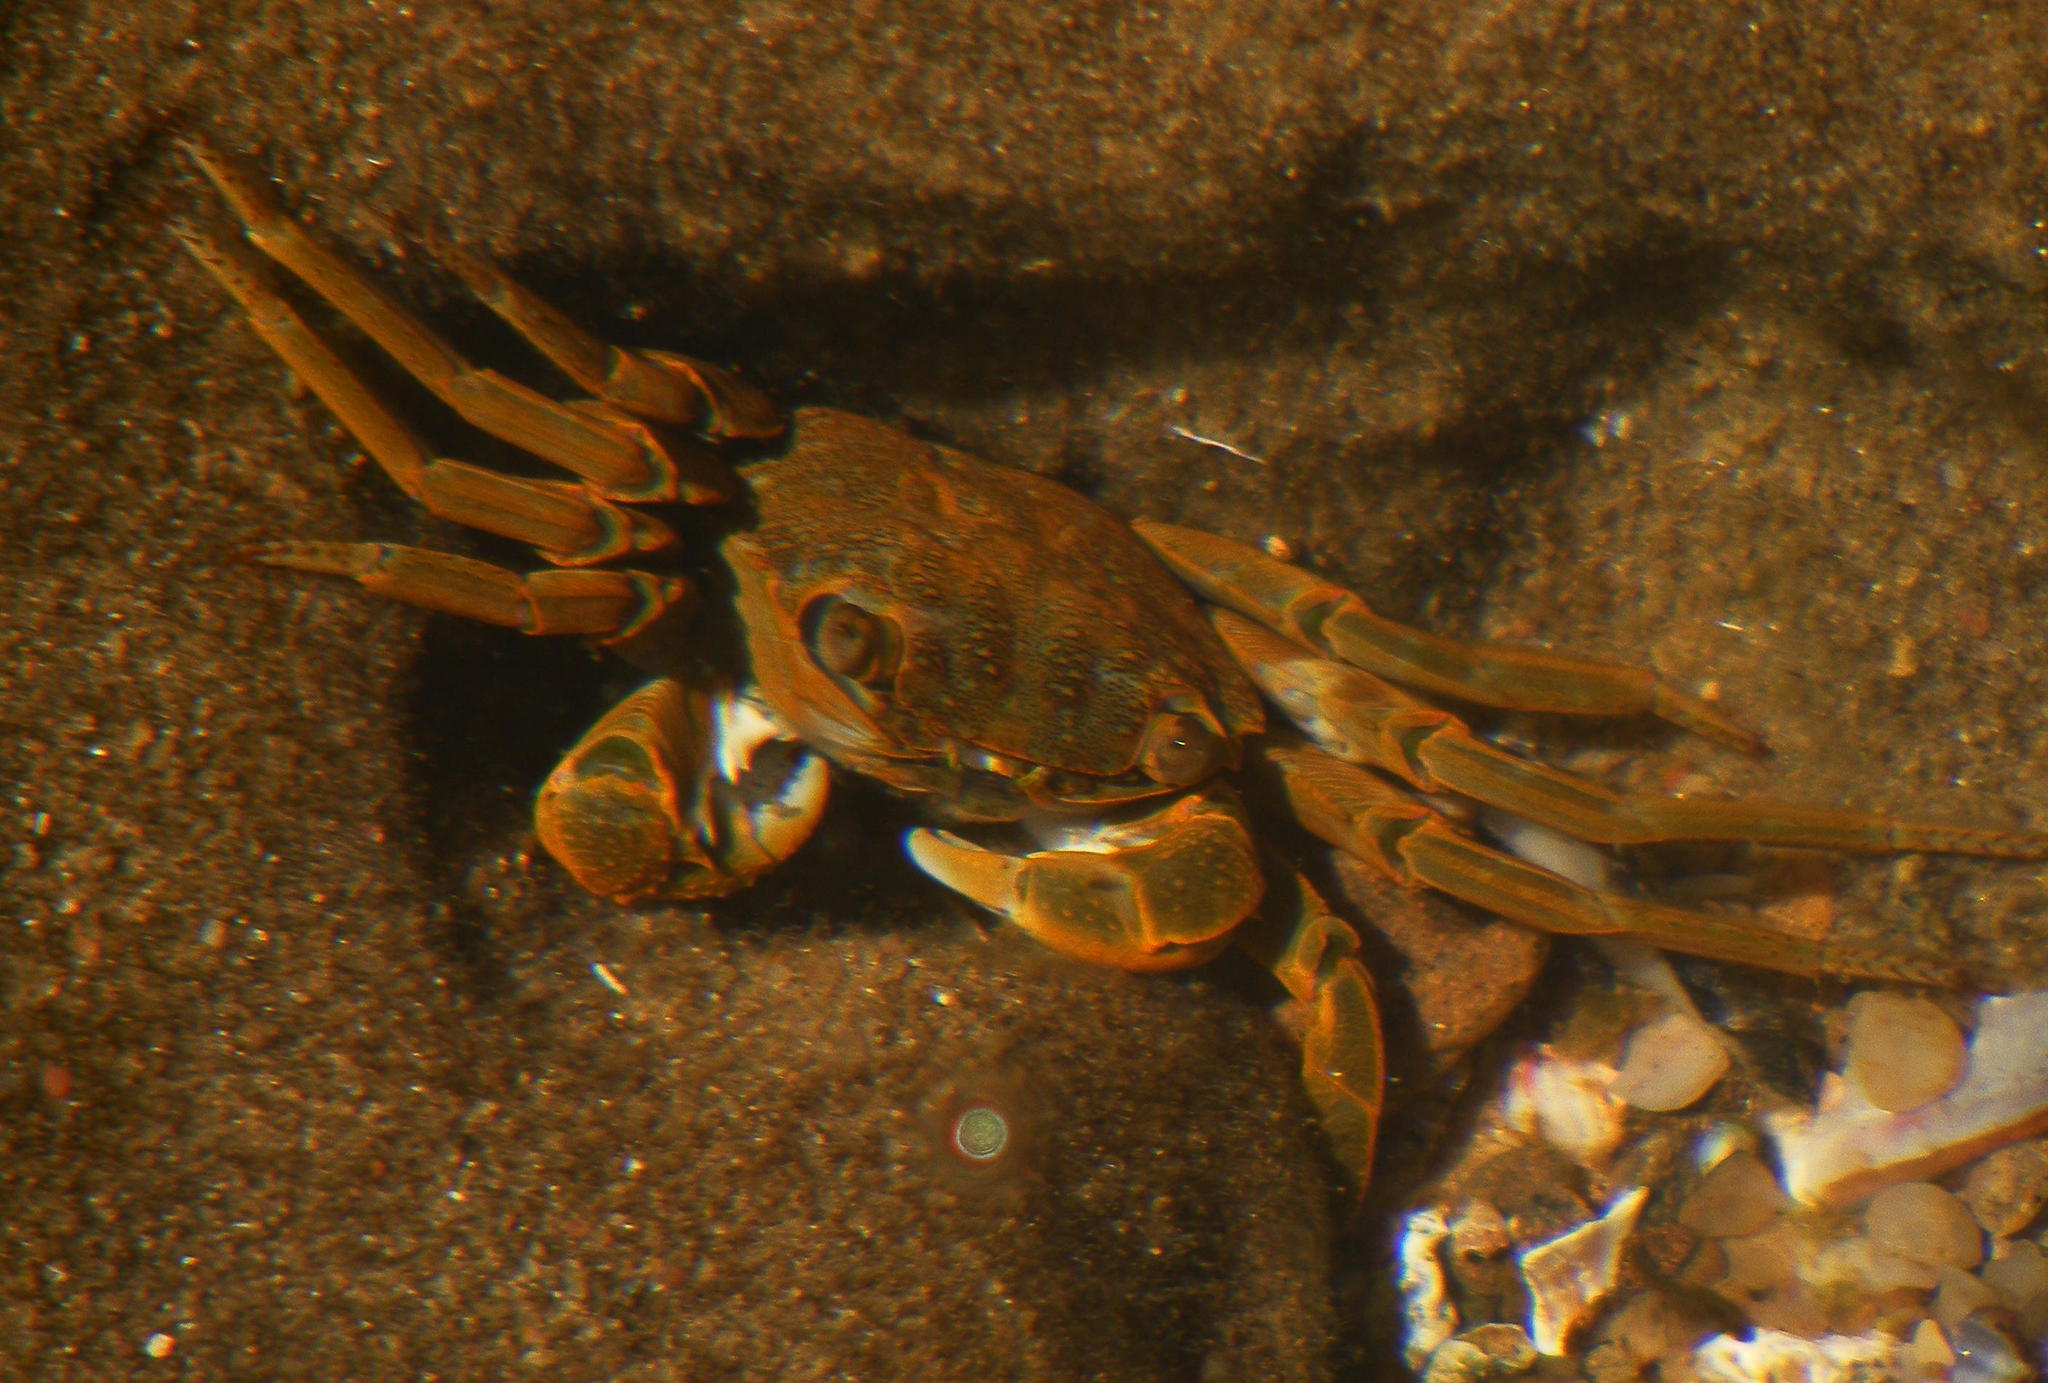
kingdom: Animalia
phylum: Arthropoda
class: Malacostraca
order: Decapoda
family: Grapsidae
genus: Grapsus
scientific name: Grapsus fourmanoiri
